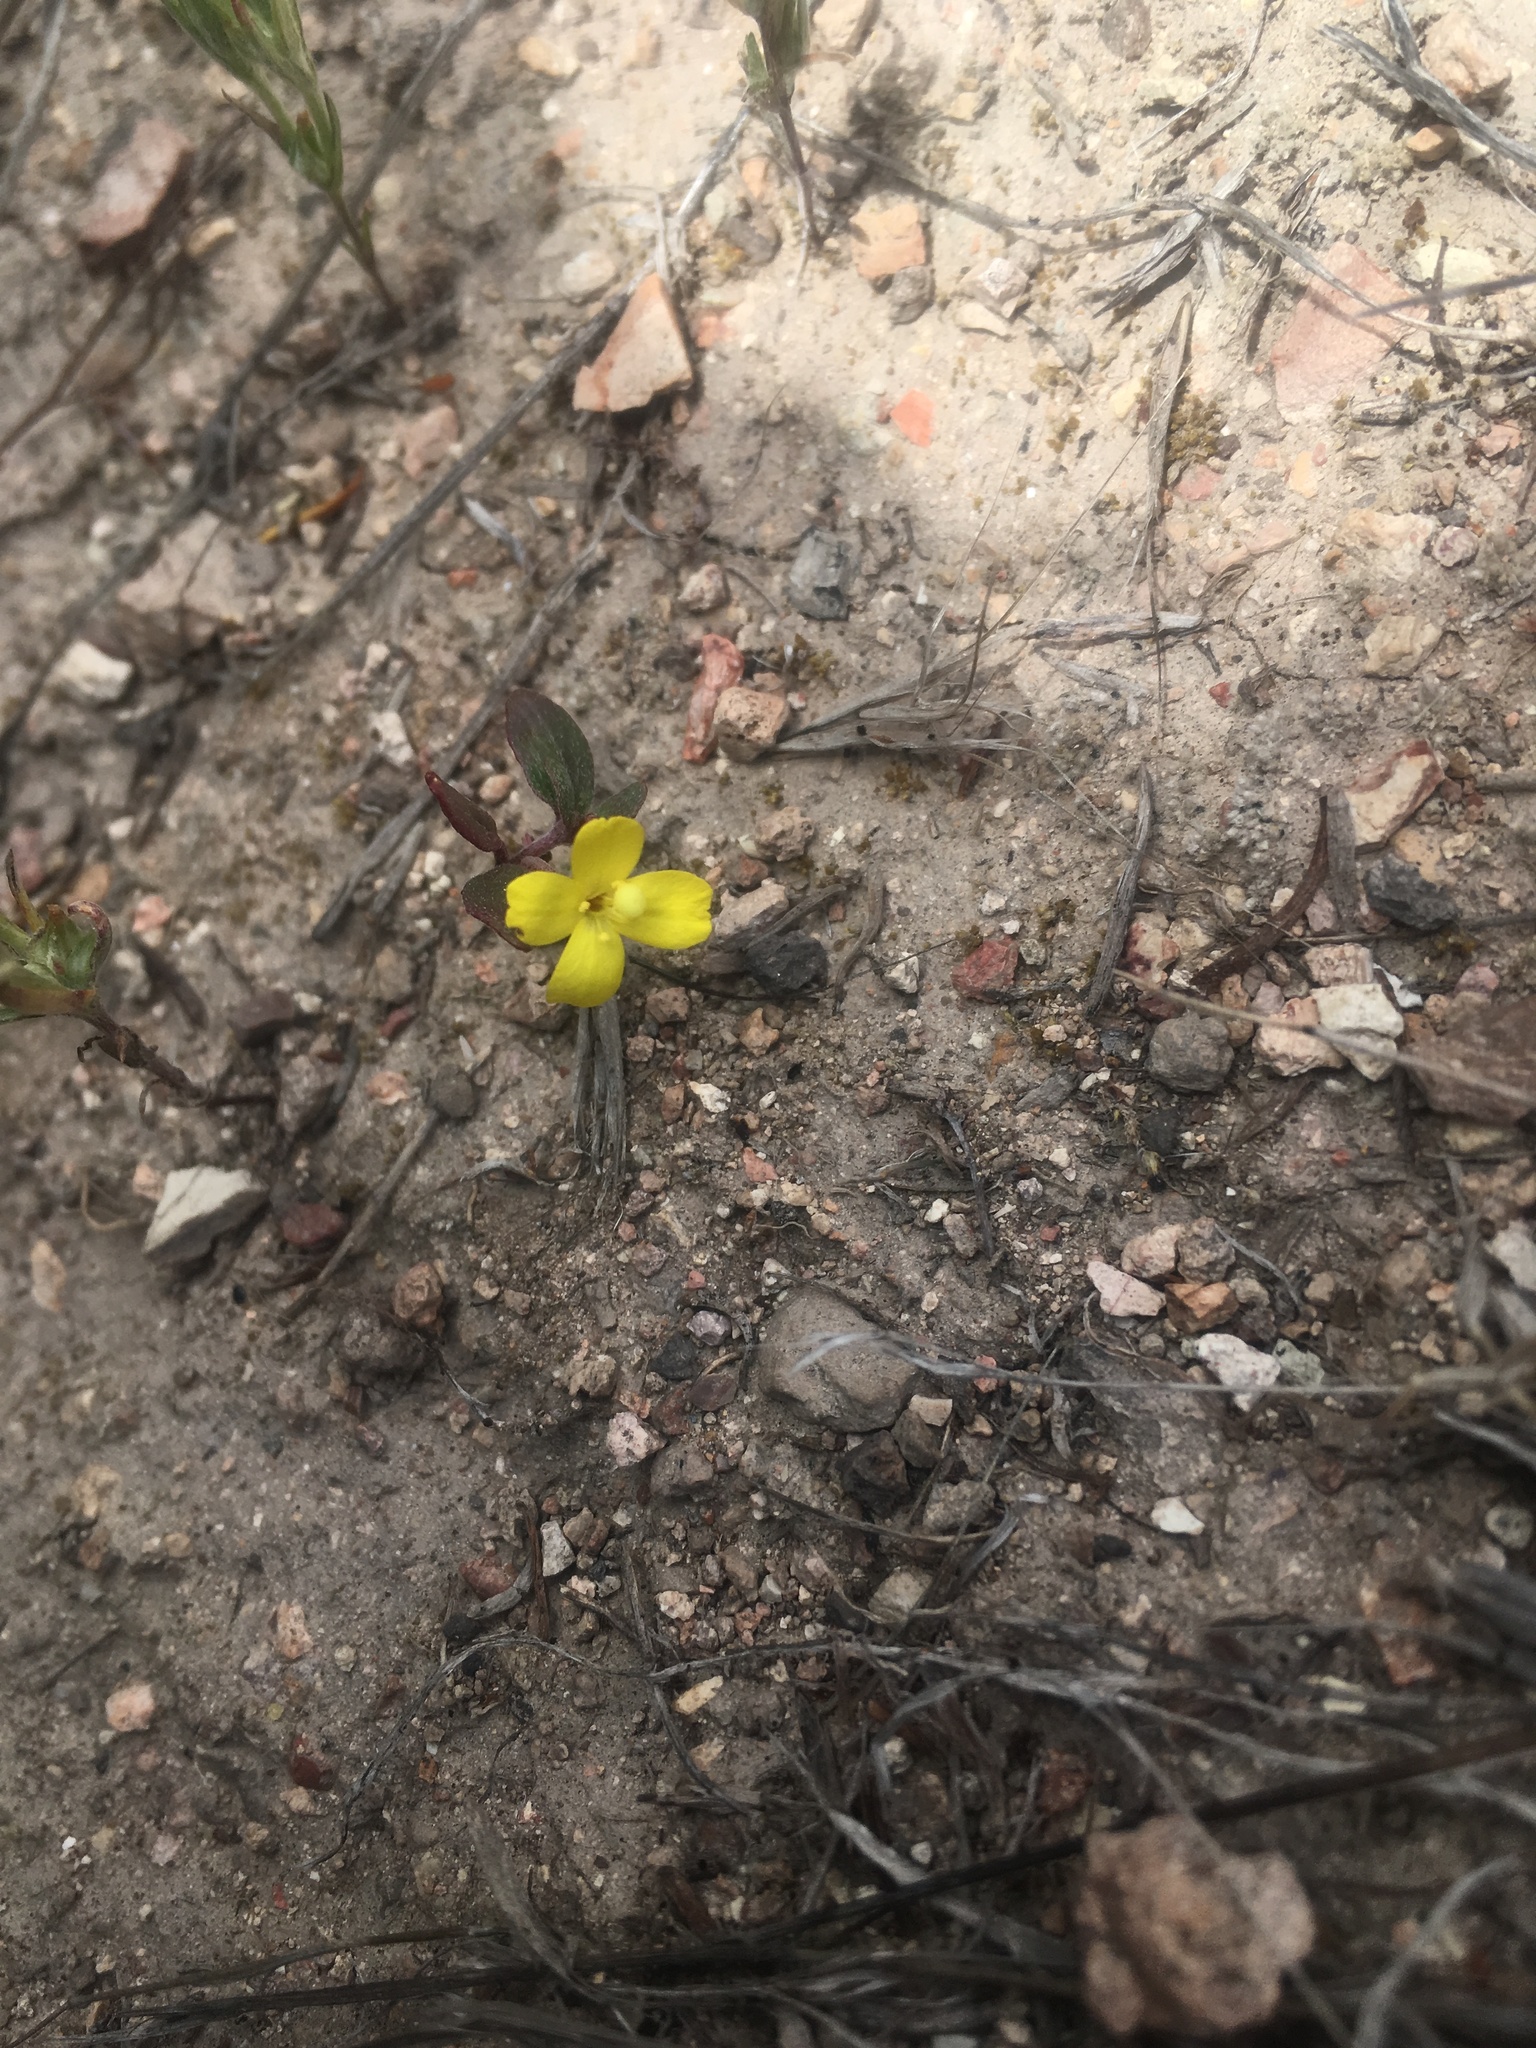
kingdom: Plantae
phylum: Tracheophyta
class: Magnoliopsida
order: Myrtales
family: Onagraceae
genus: Camissoniopsis
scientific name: Camissoniopsis ignota
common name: Jurupa hills suncup
